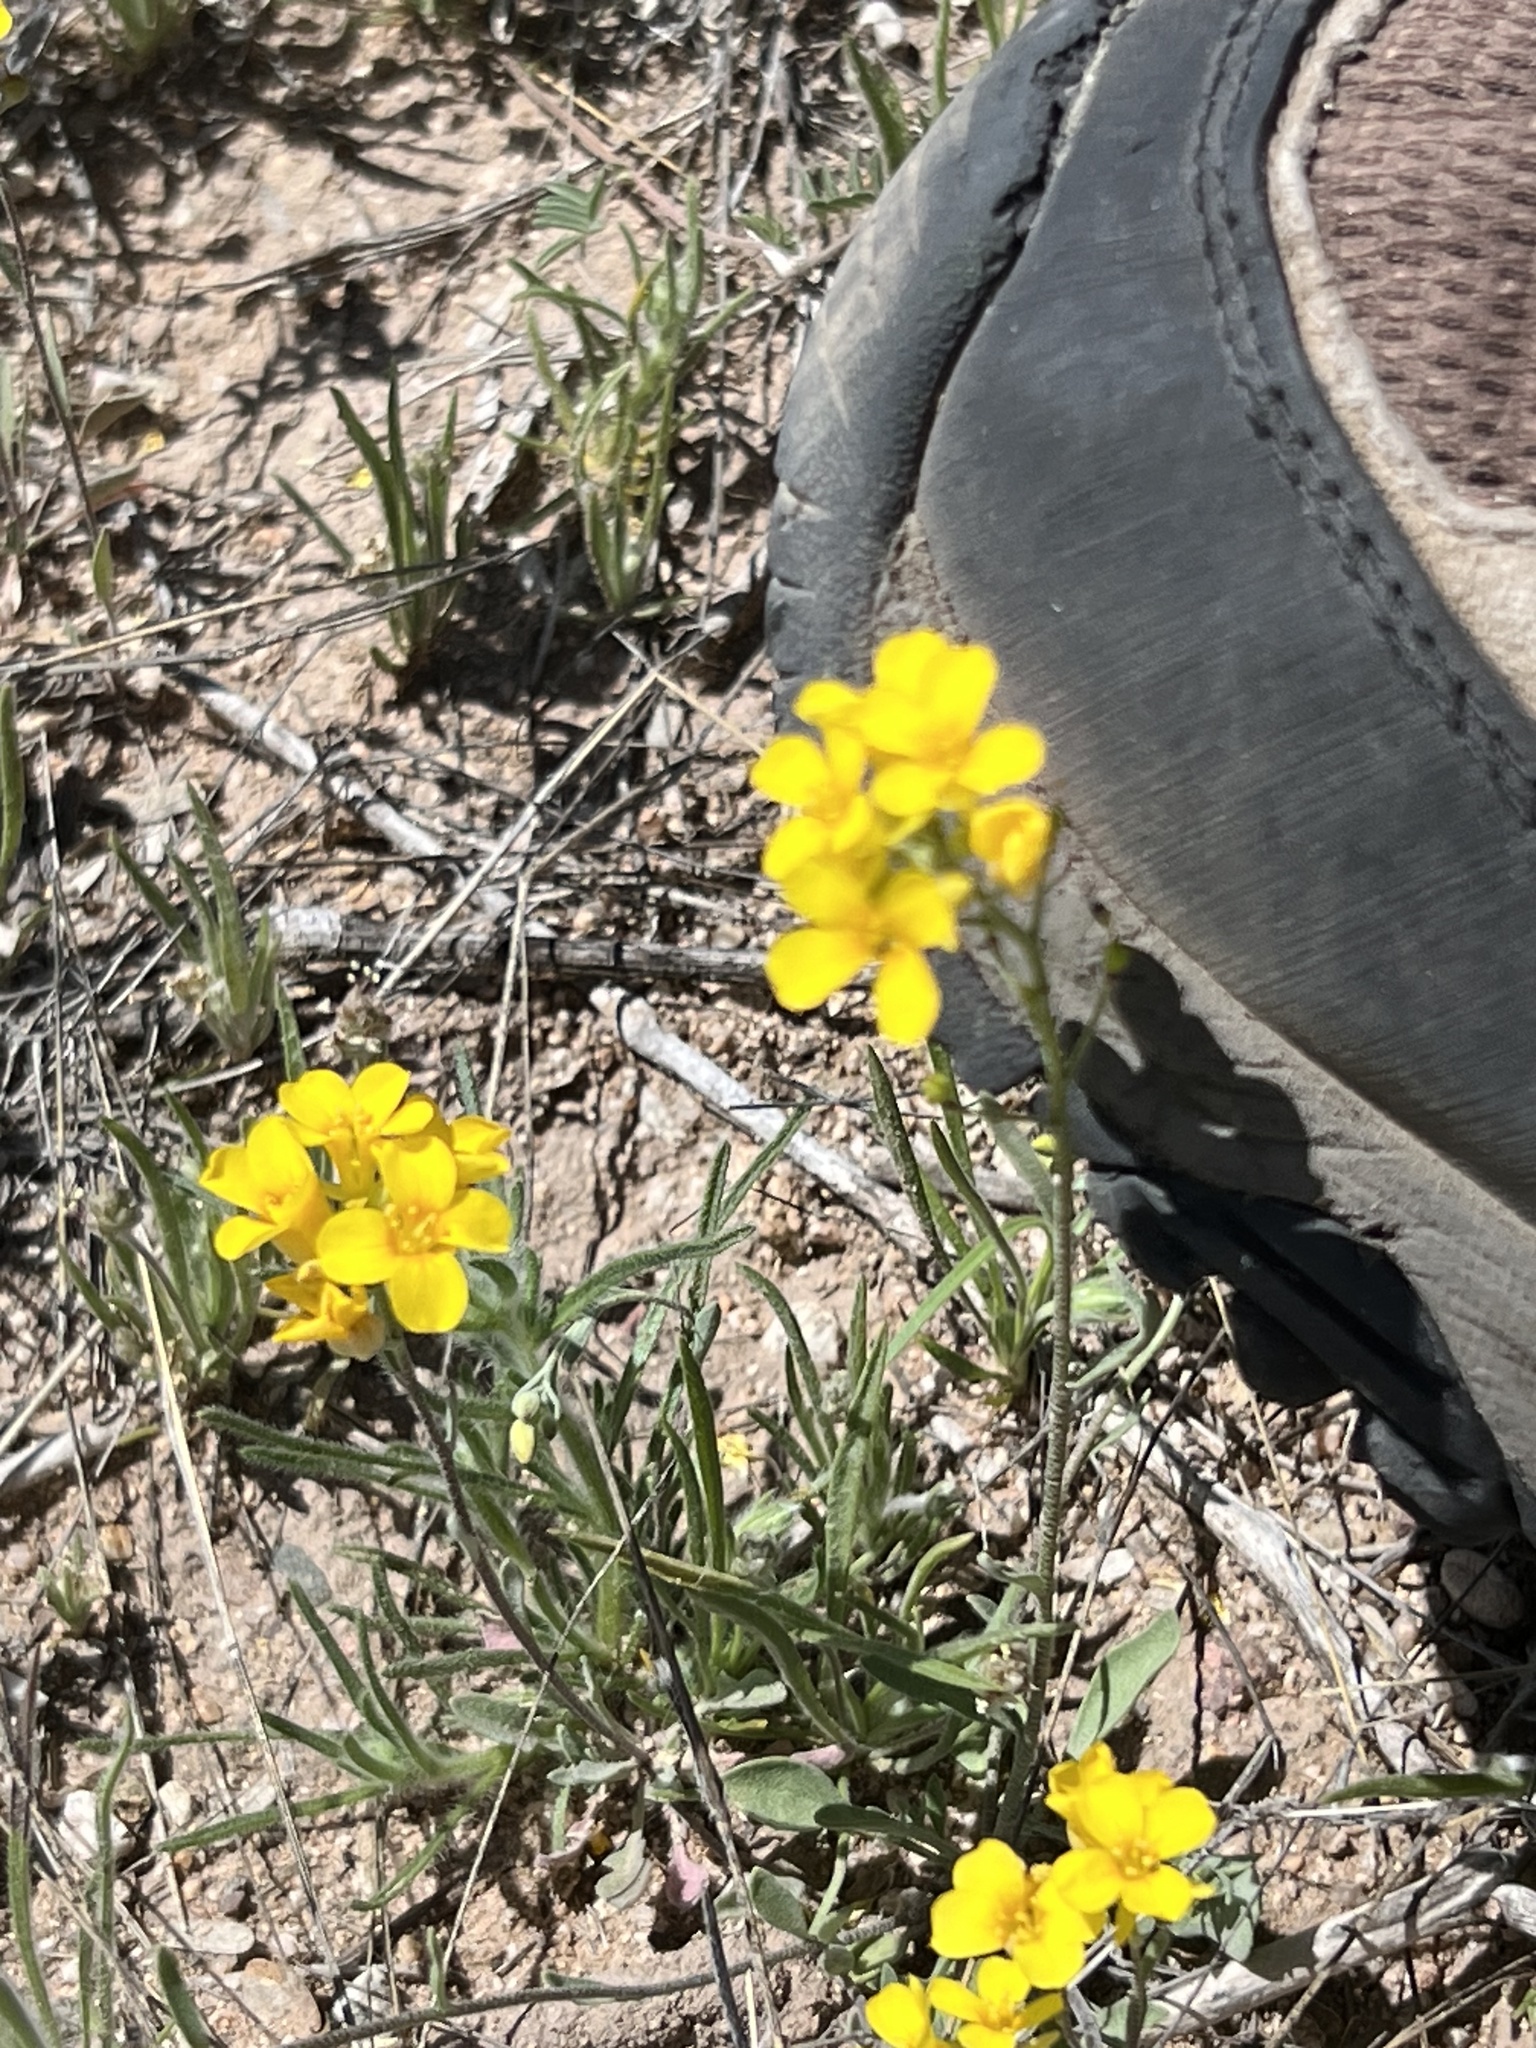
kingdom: Plantae
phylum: Tracheophyta
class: Magnoliopsida
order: Brassicales
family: Brassicaceae
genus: Physaria
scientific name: Physaria gordonii
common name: Gordon's bladderpod
